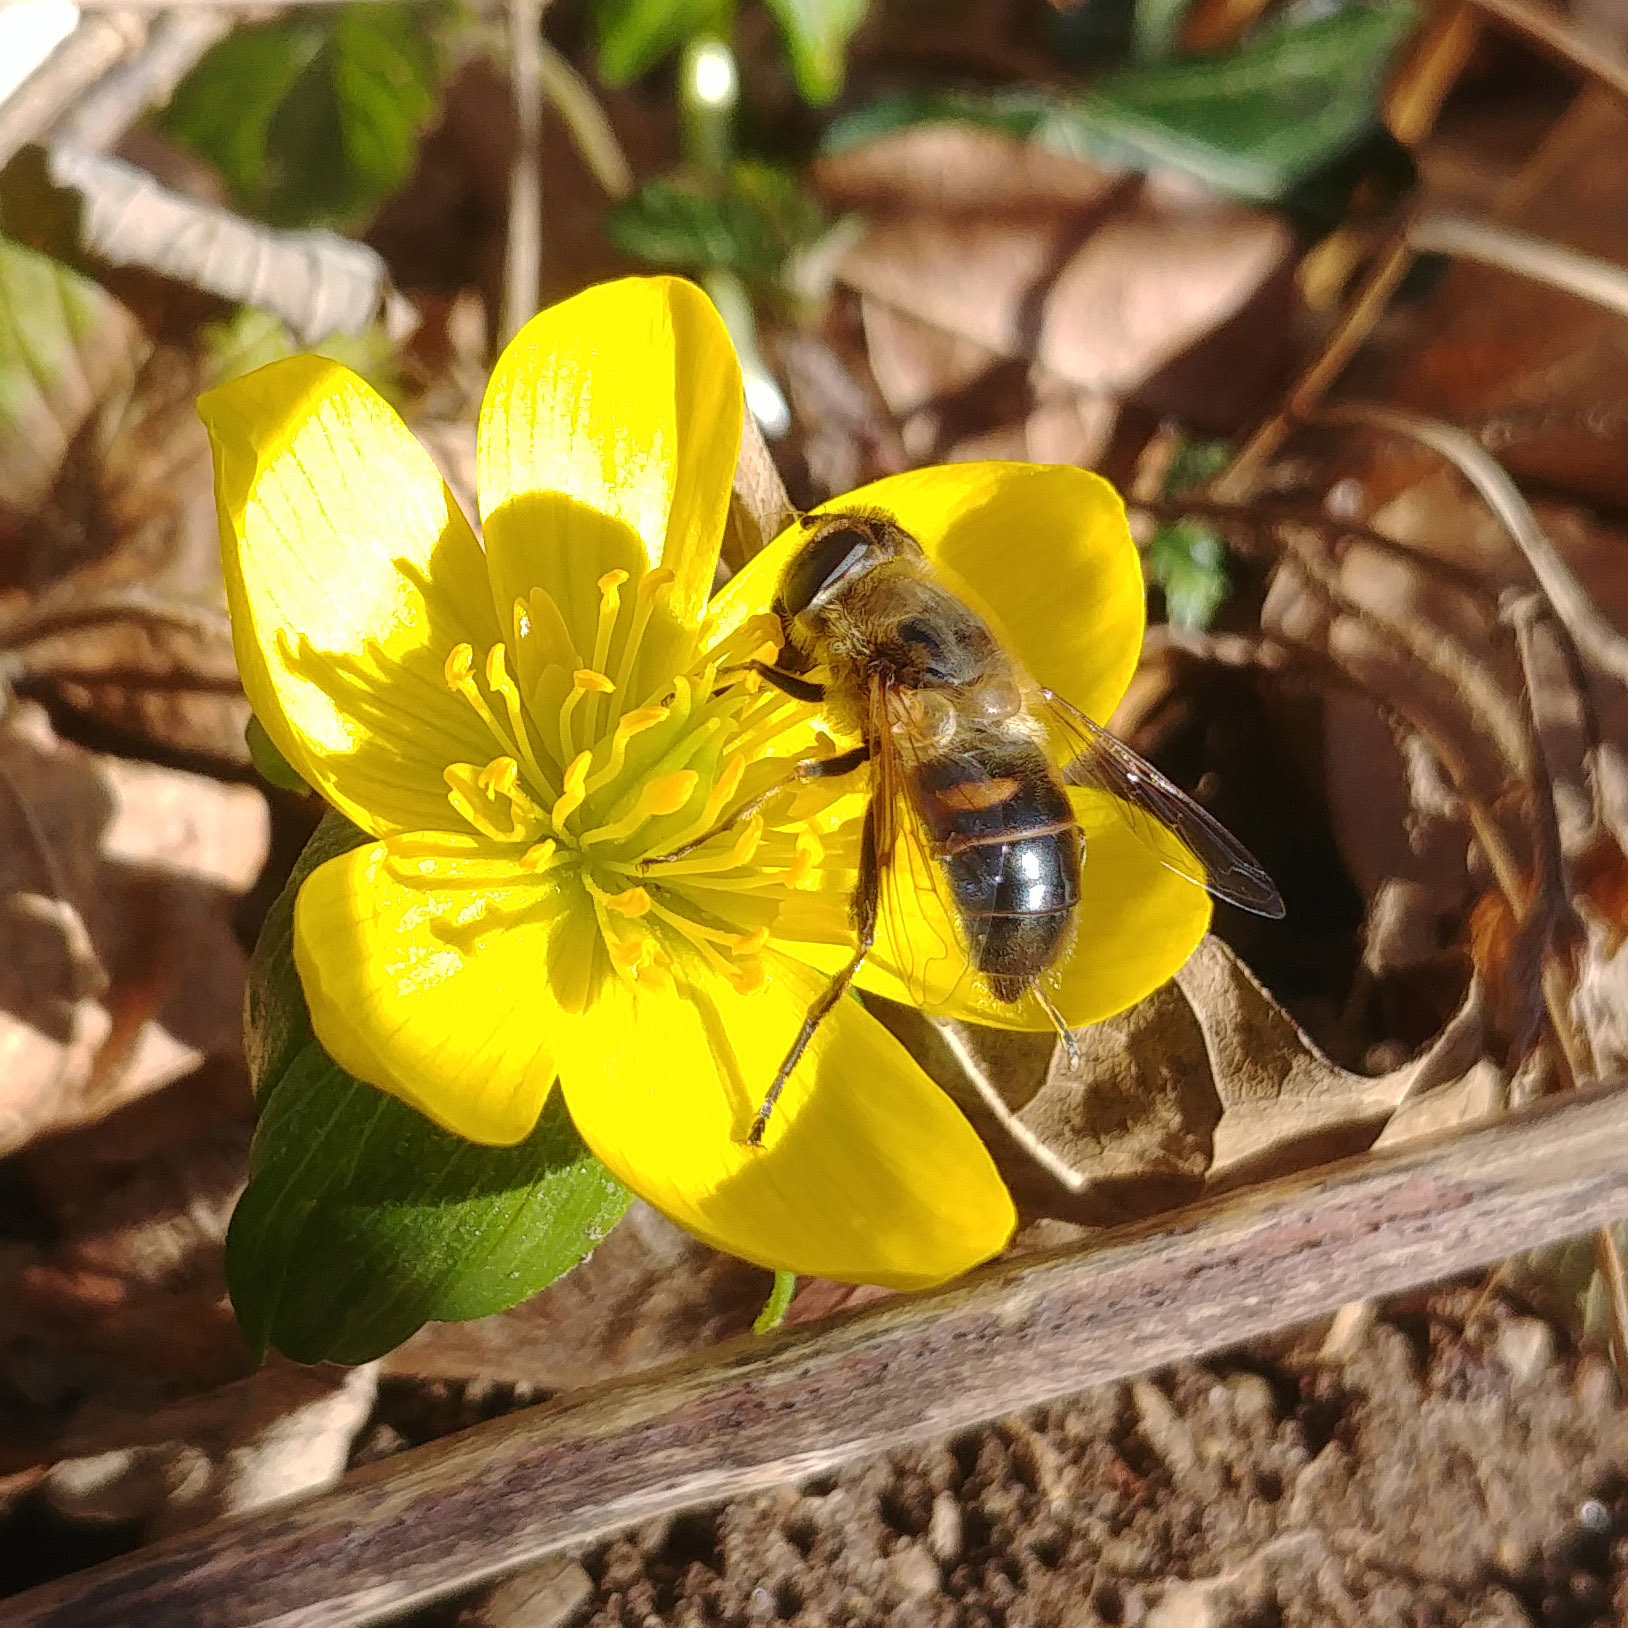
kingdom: Animalia
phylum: Arthropoda
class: Insecta
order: Diptera
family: Syrphidae
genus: Eristalis
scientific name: Eristalis tenax
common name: Drone fly
